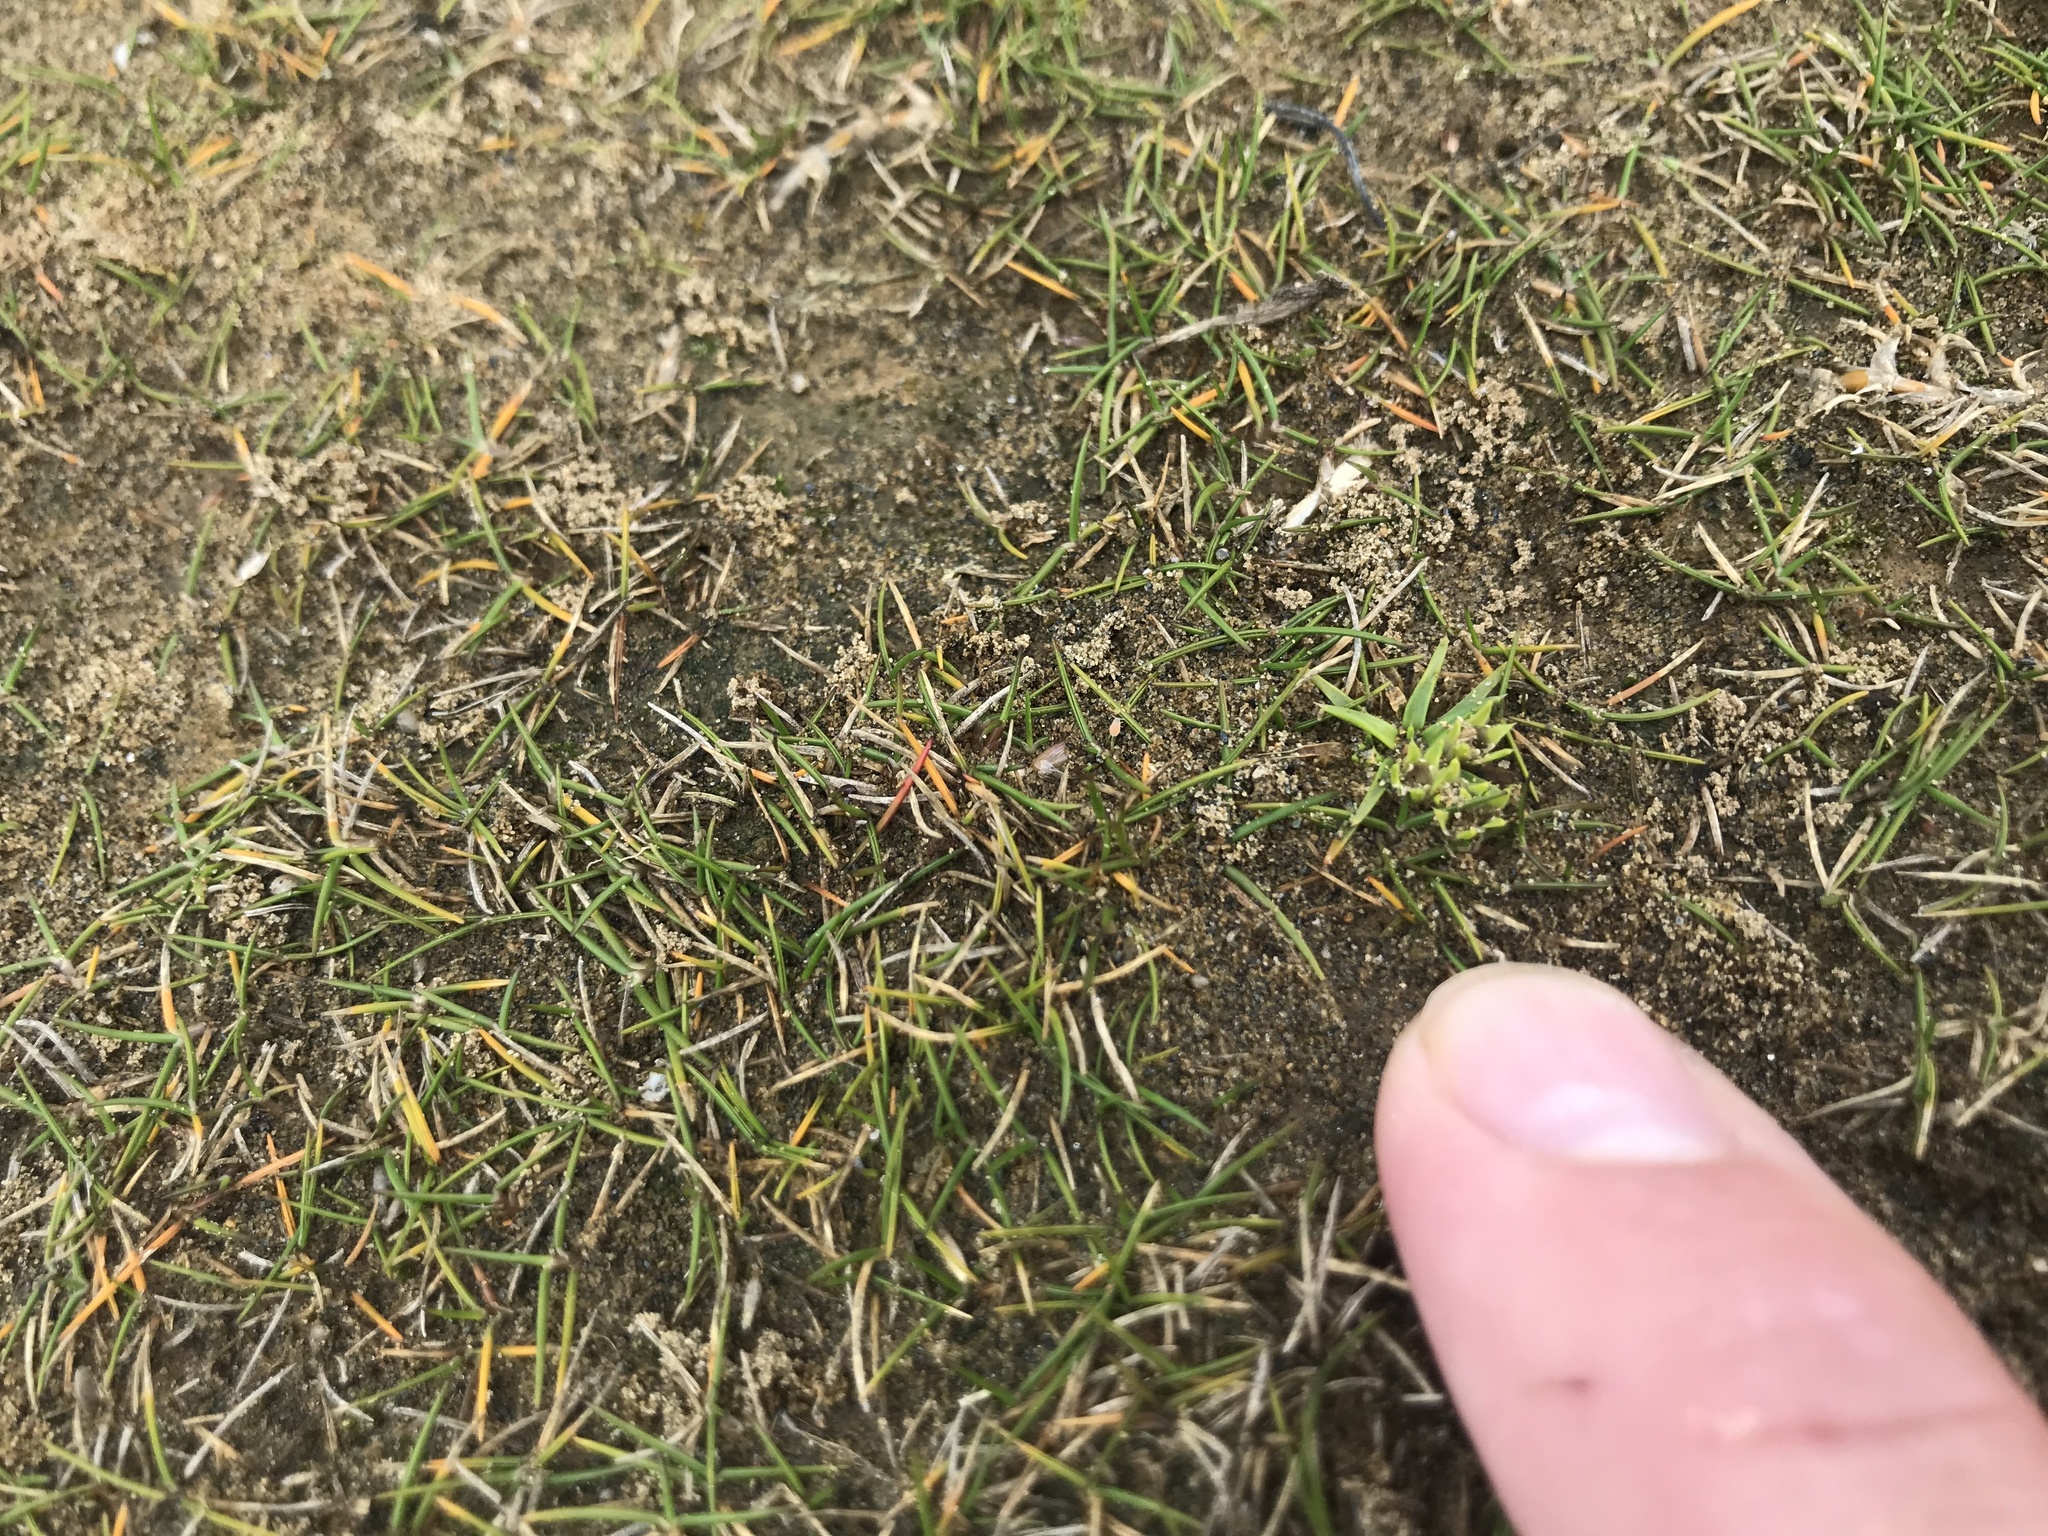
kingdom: Plantae
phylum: Tracheophyta
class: Magnoliopsida
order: Caryophyllales
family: Caryophyllaceae
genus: Colobanthus
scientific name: Colobanthus muelleri
